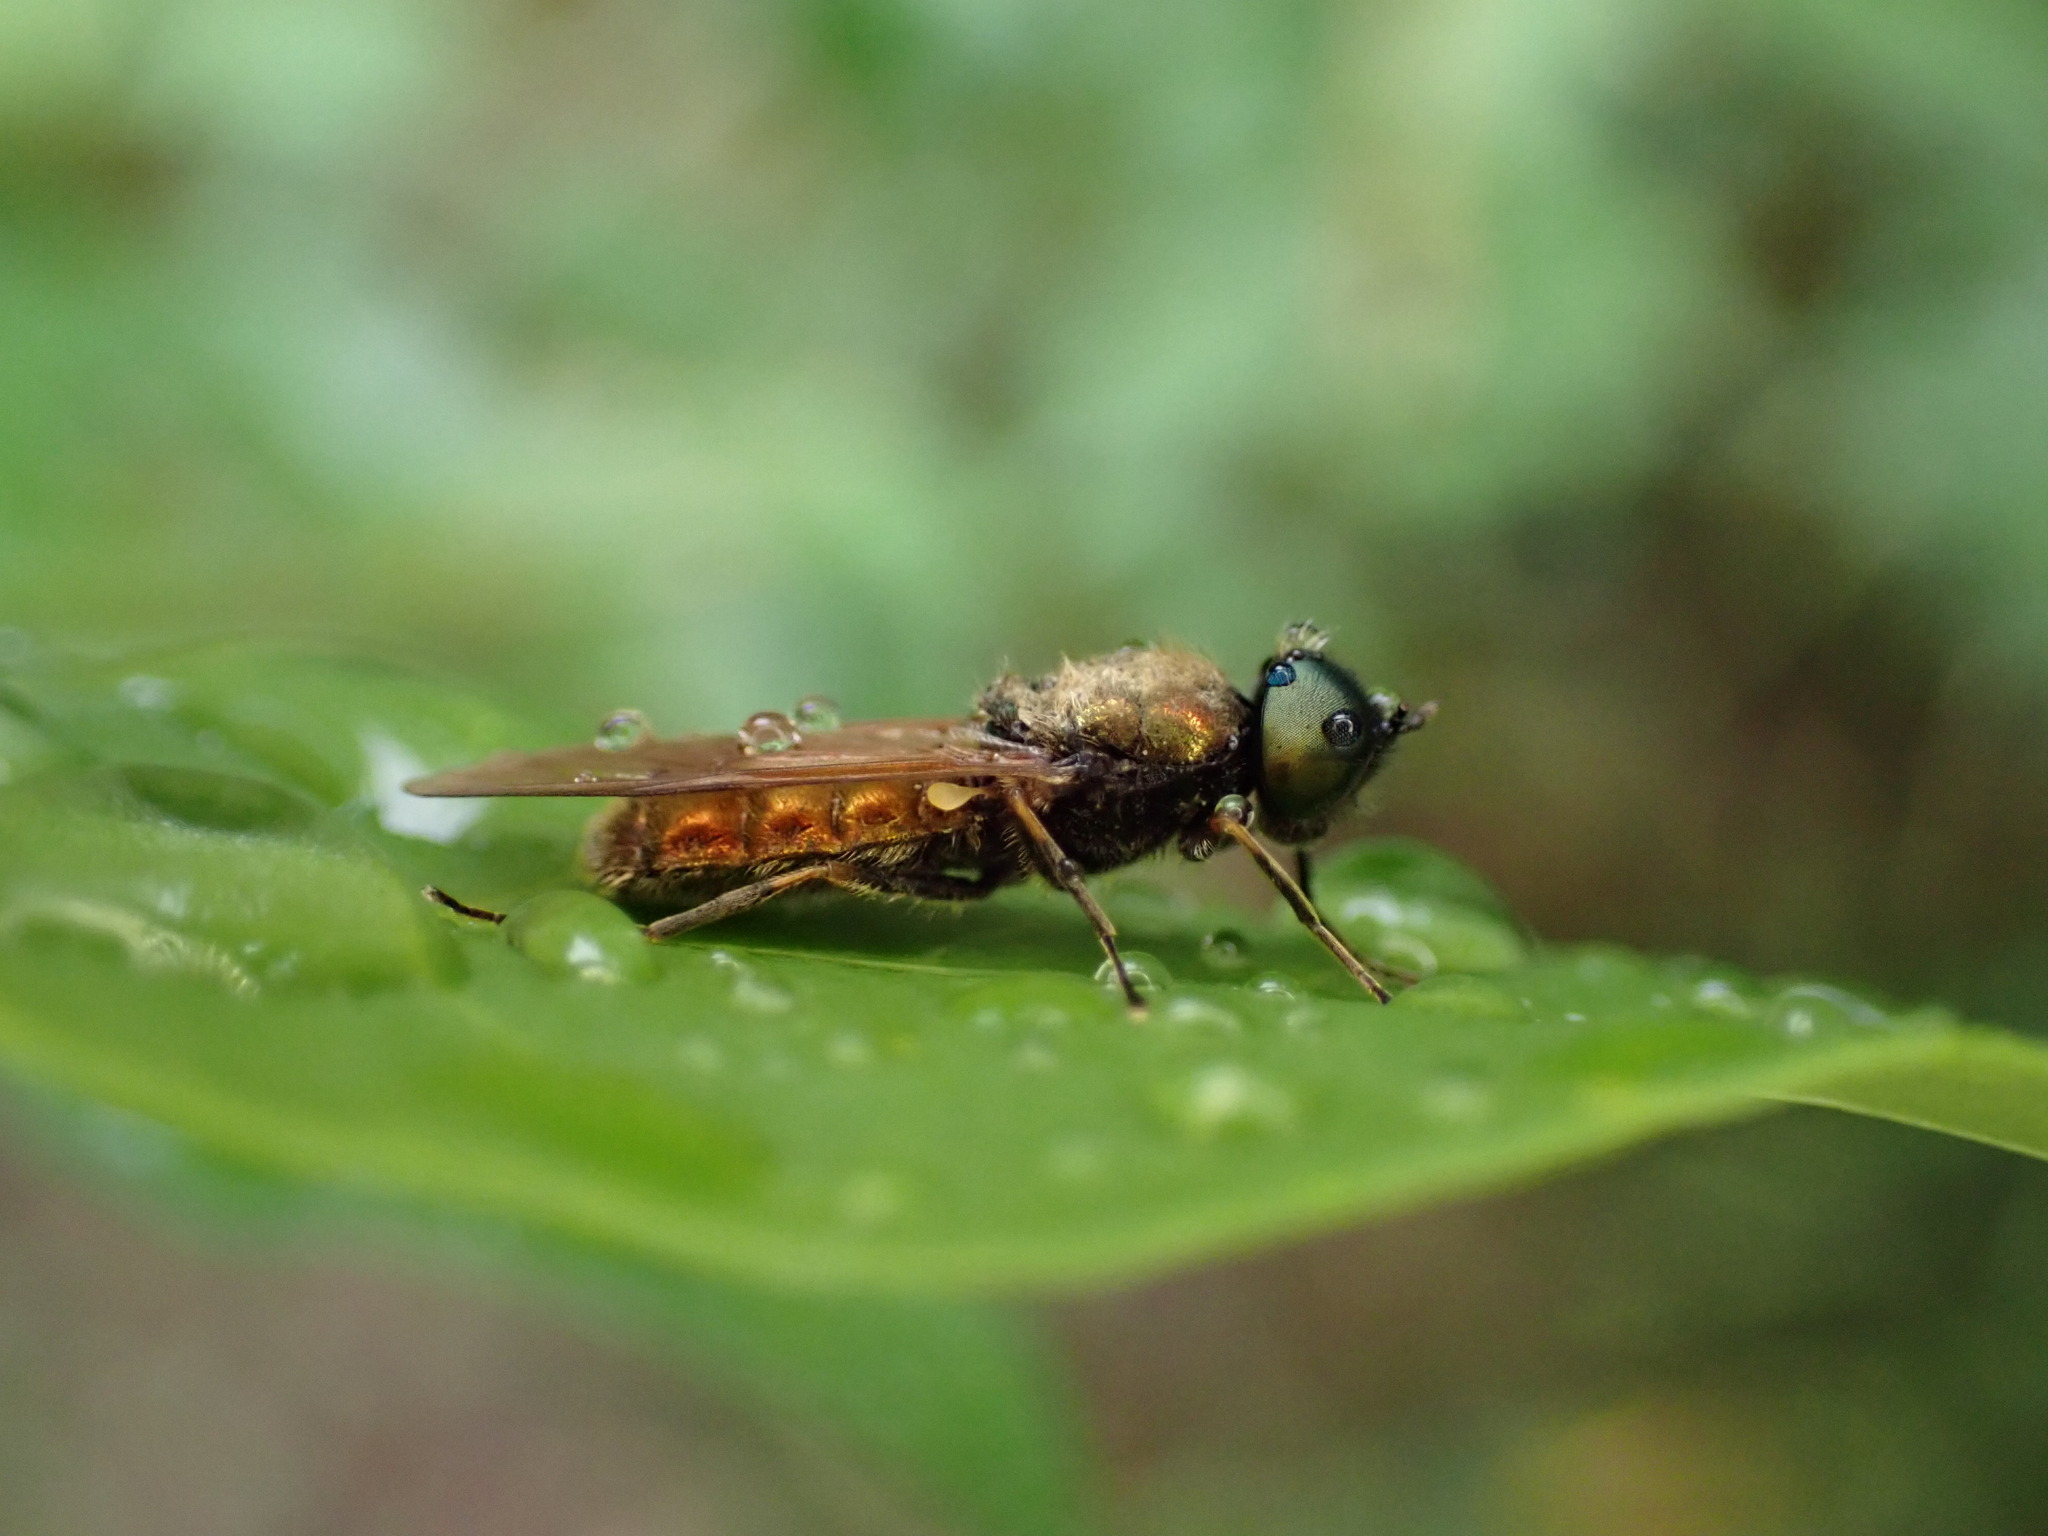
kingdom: Animalia
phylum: Arthropoda
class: Insecta
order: Diptera
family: Stratiomyidae
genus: Chloromyia
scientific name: Chloromyia formosa
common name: Soldier fly
